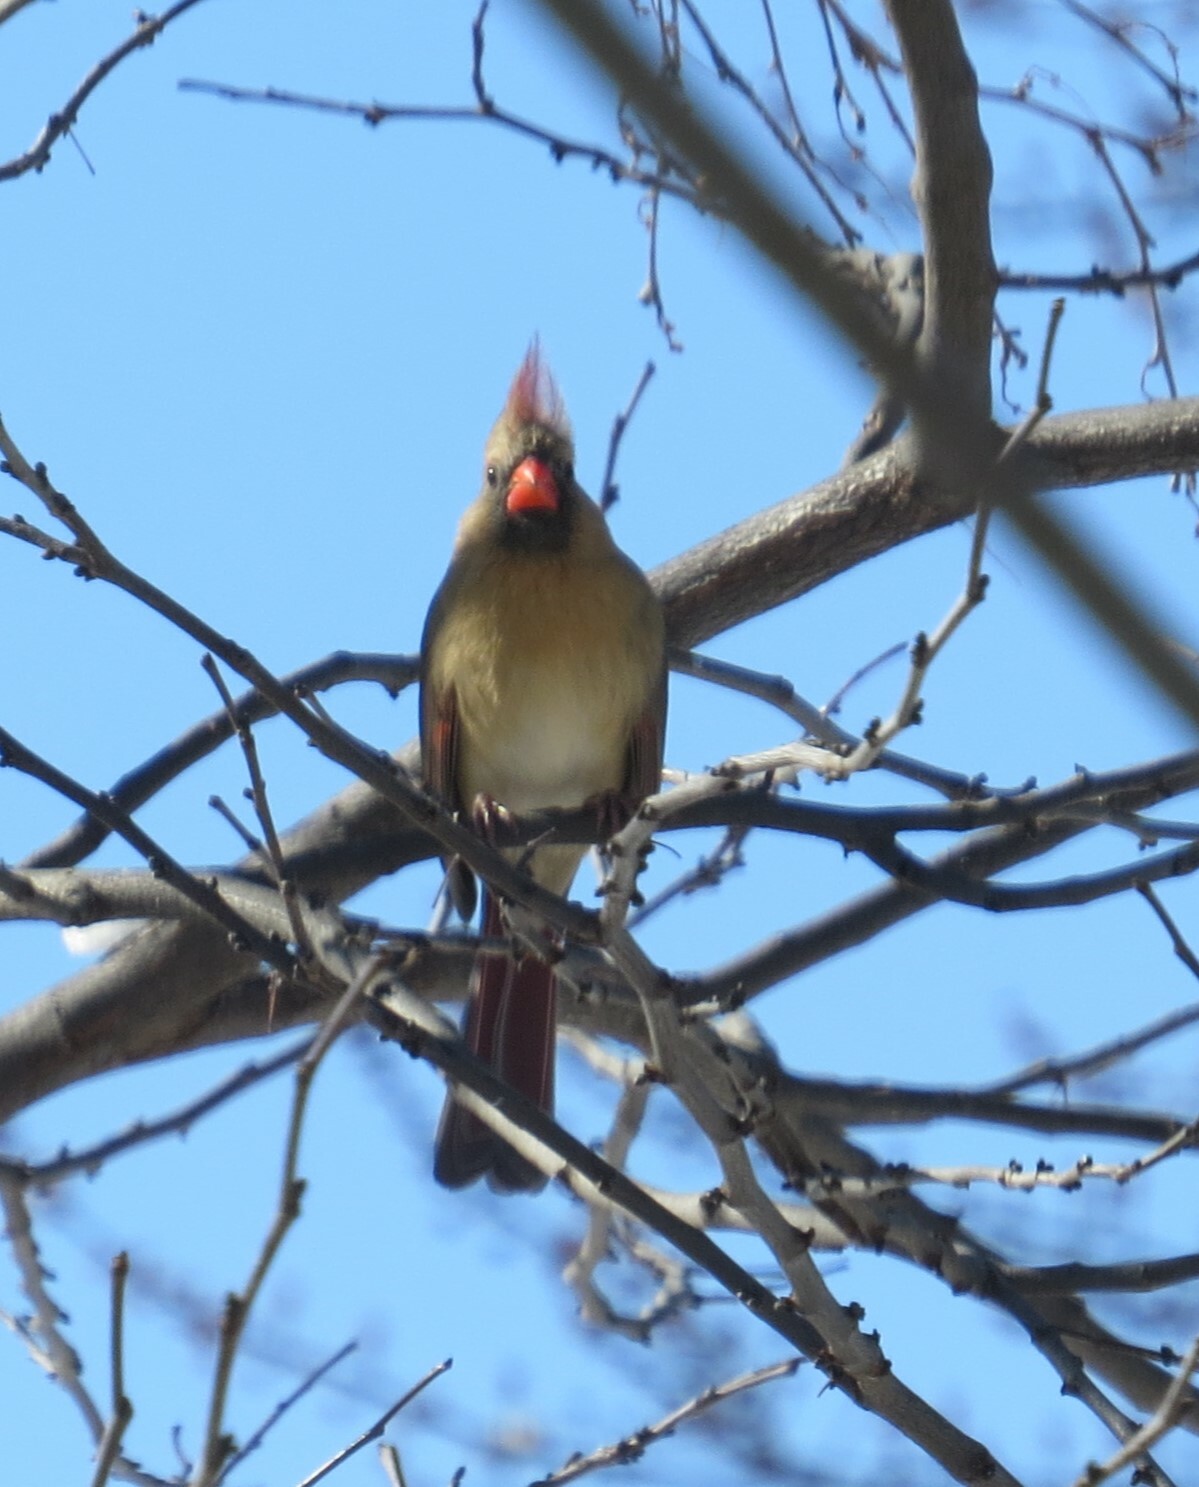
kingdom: Animalia
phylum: Chordata
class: Aves
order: Passeriformes
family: Cardinalidae
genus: Cardinalis
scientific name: Cardinalis cardinalis
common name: Northern cardinal
